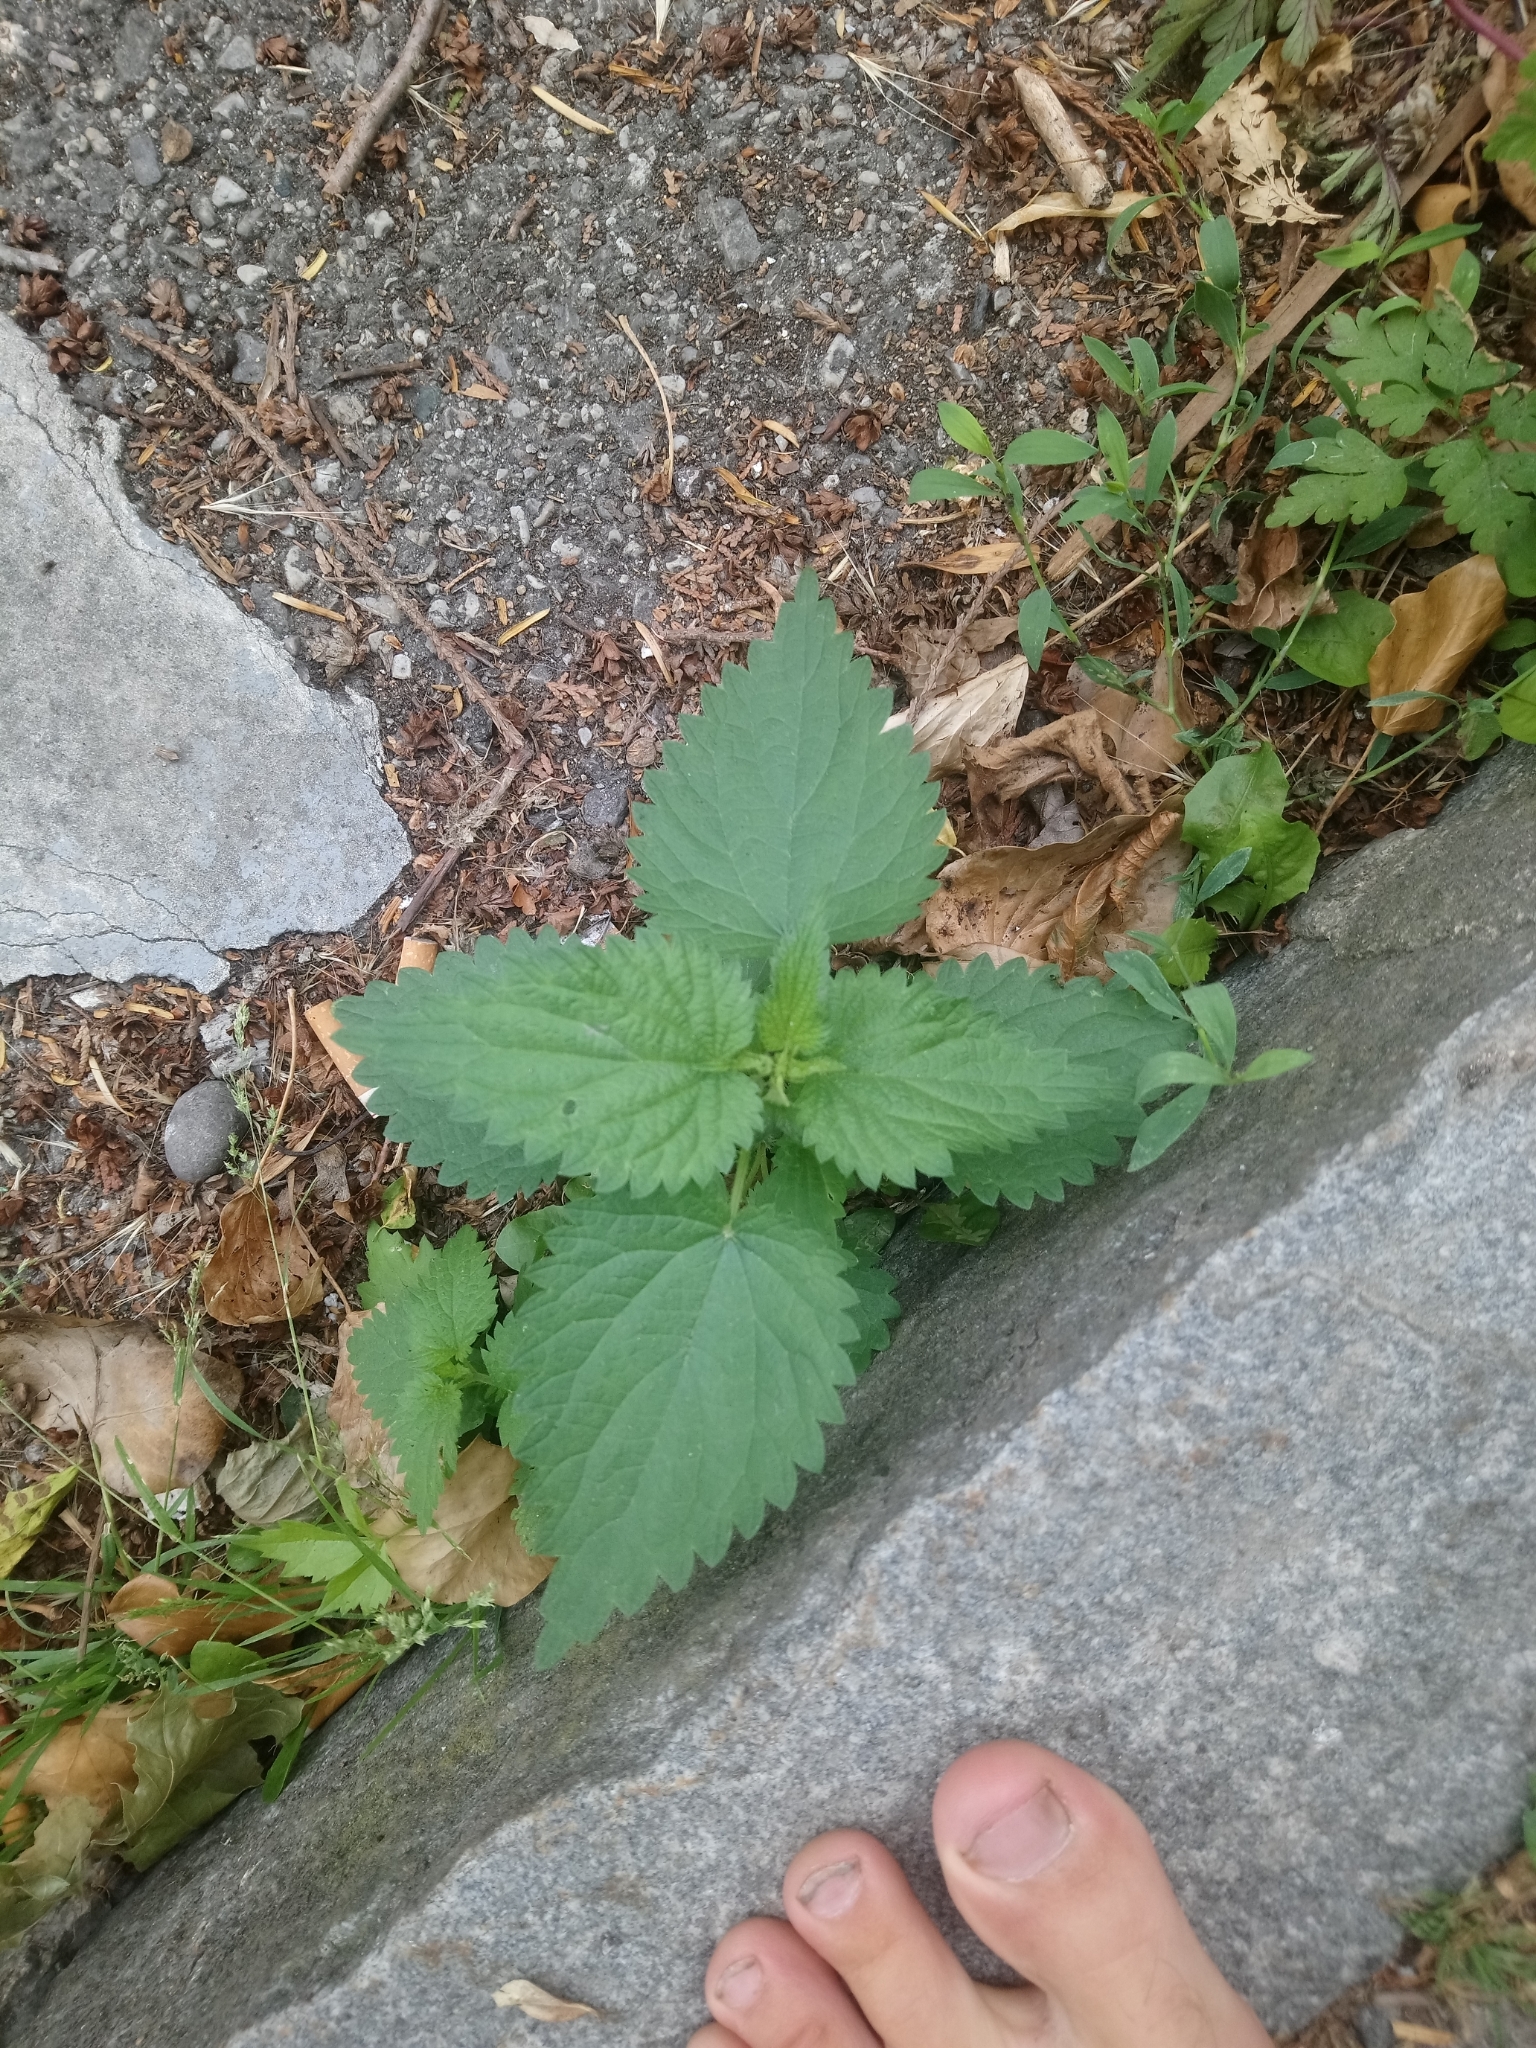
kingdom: Plantae
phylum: Tracheophyta
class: Magnoliopsida
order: Rosales
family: Urticaceae
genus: Urtica
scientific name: Urtica dioica
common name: Common nettle
